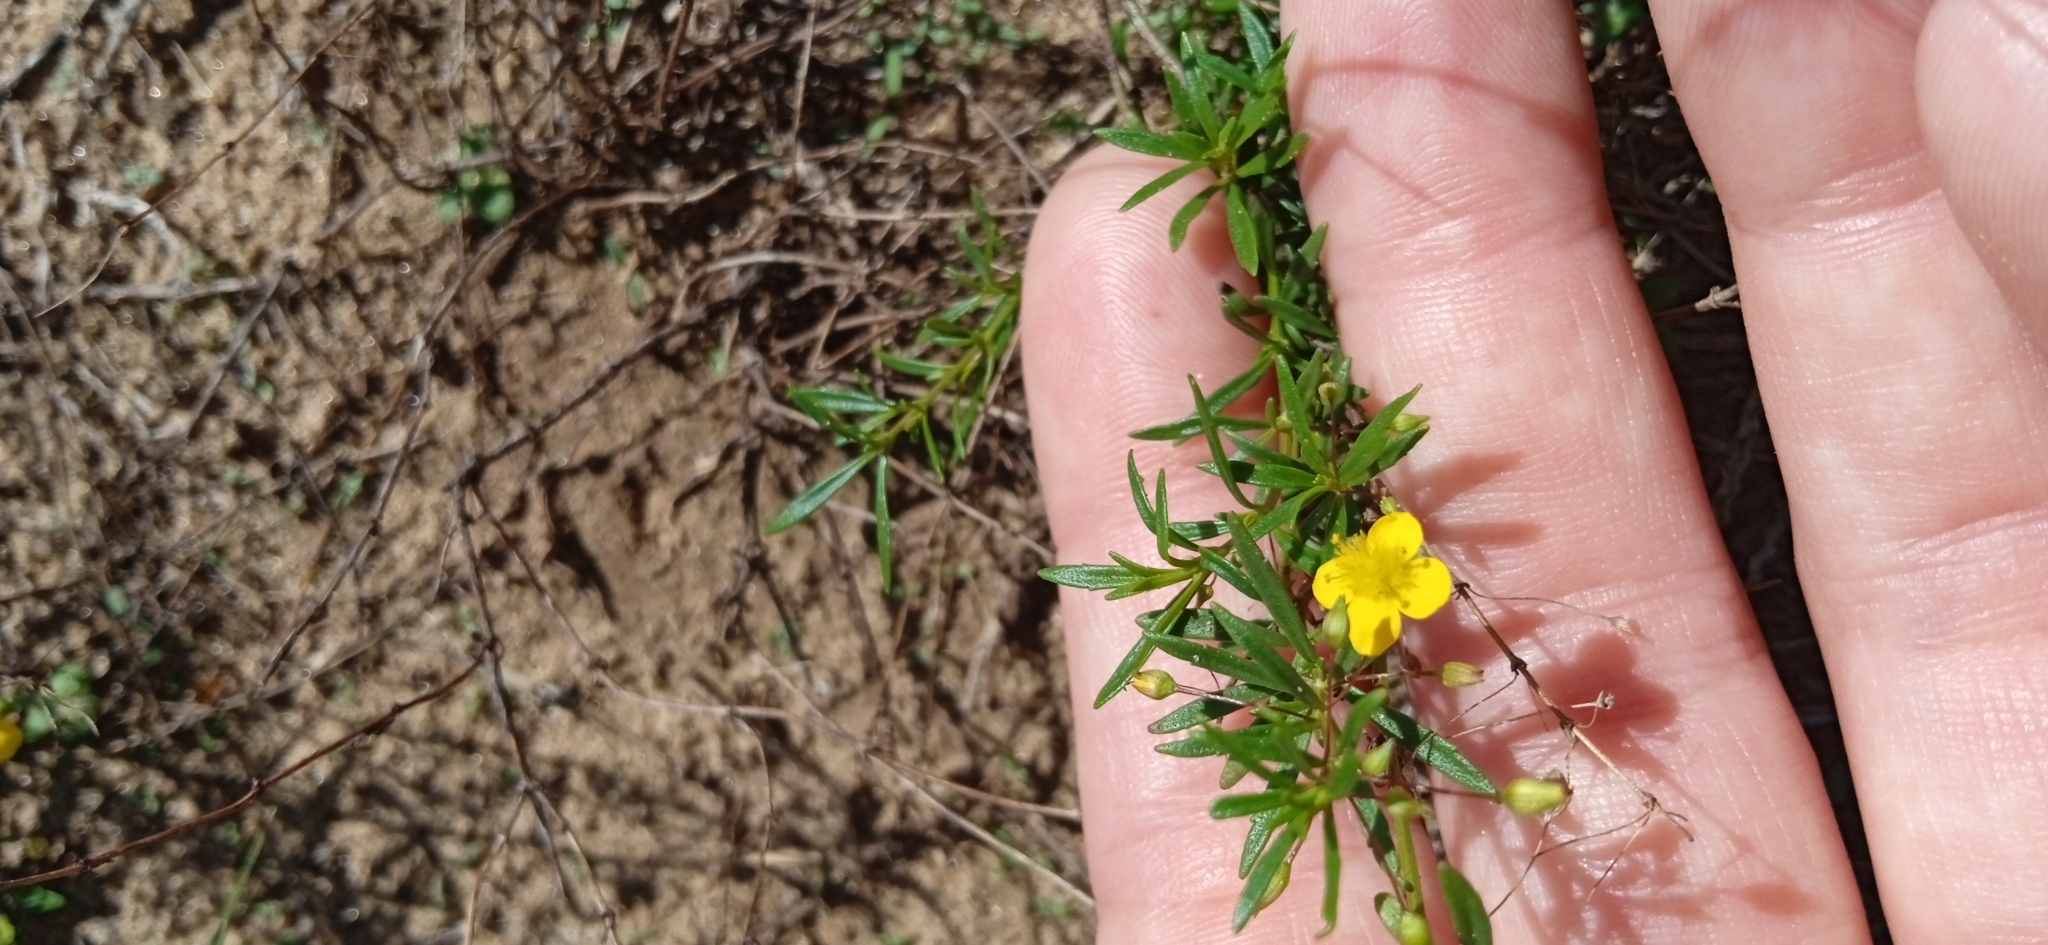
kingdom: Plantae
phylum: Tracheophyta
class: Magnoliopsida
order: Lamiales
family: Plantaginaceae
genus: Scoparia
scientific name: Scoparia montevidensis
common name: Broomwort
